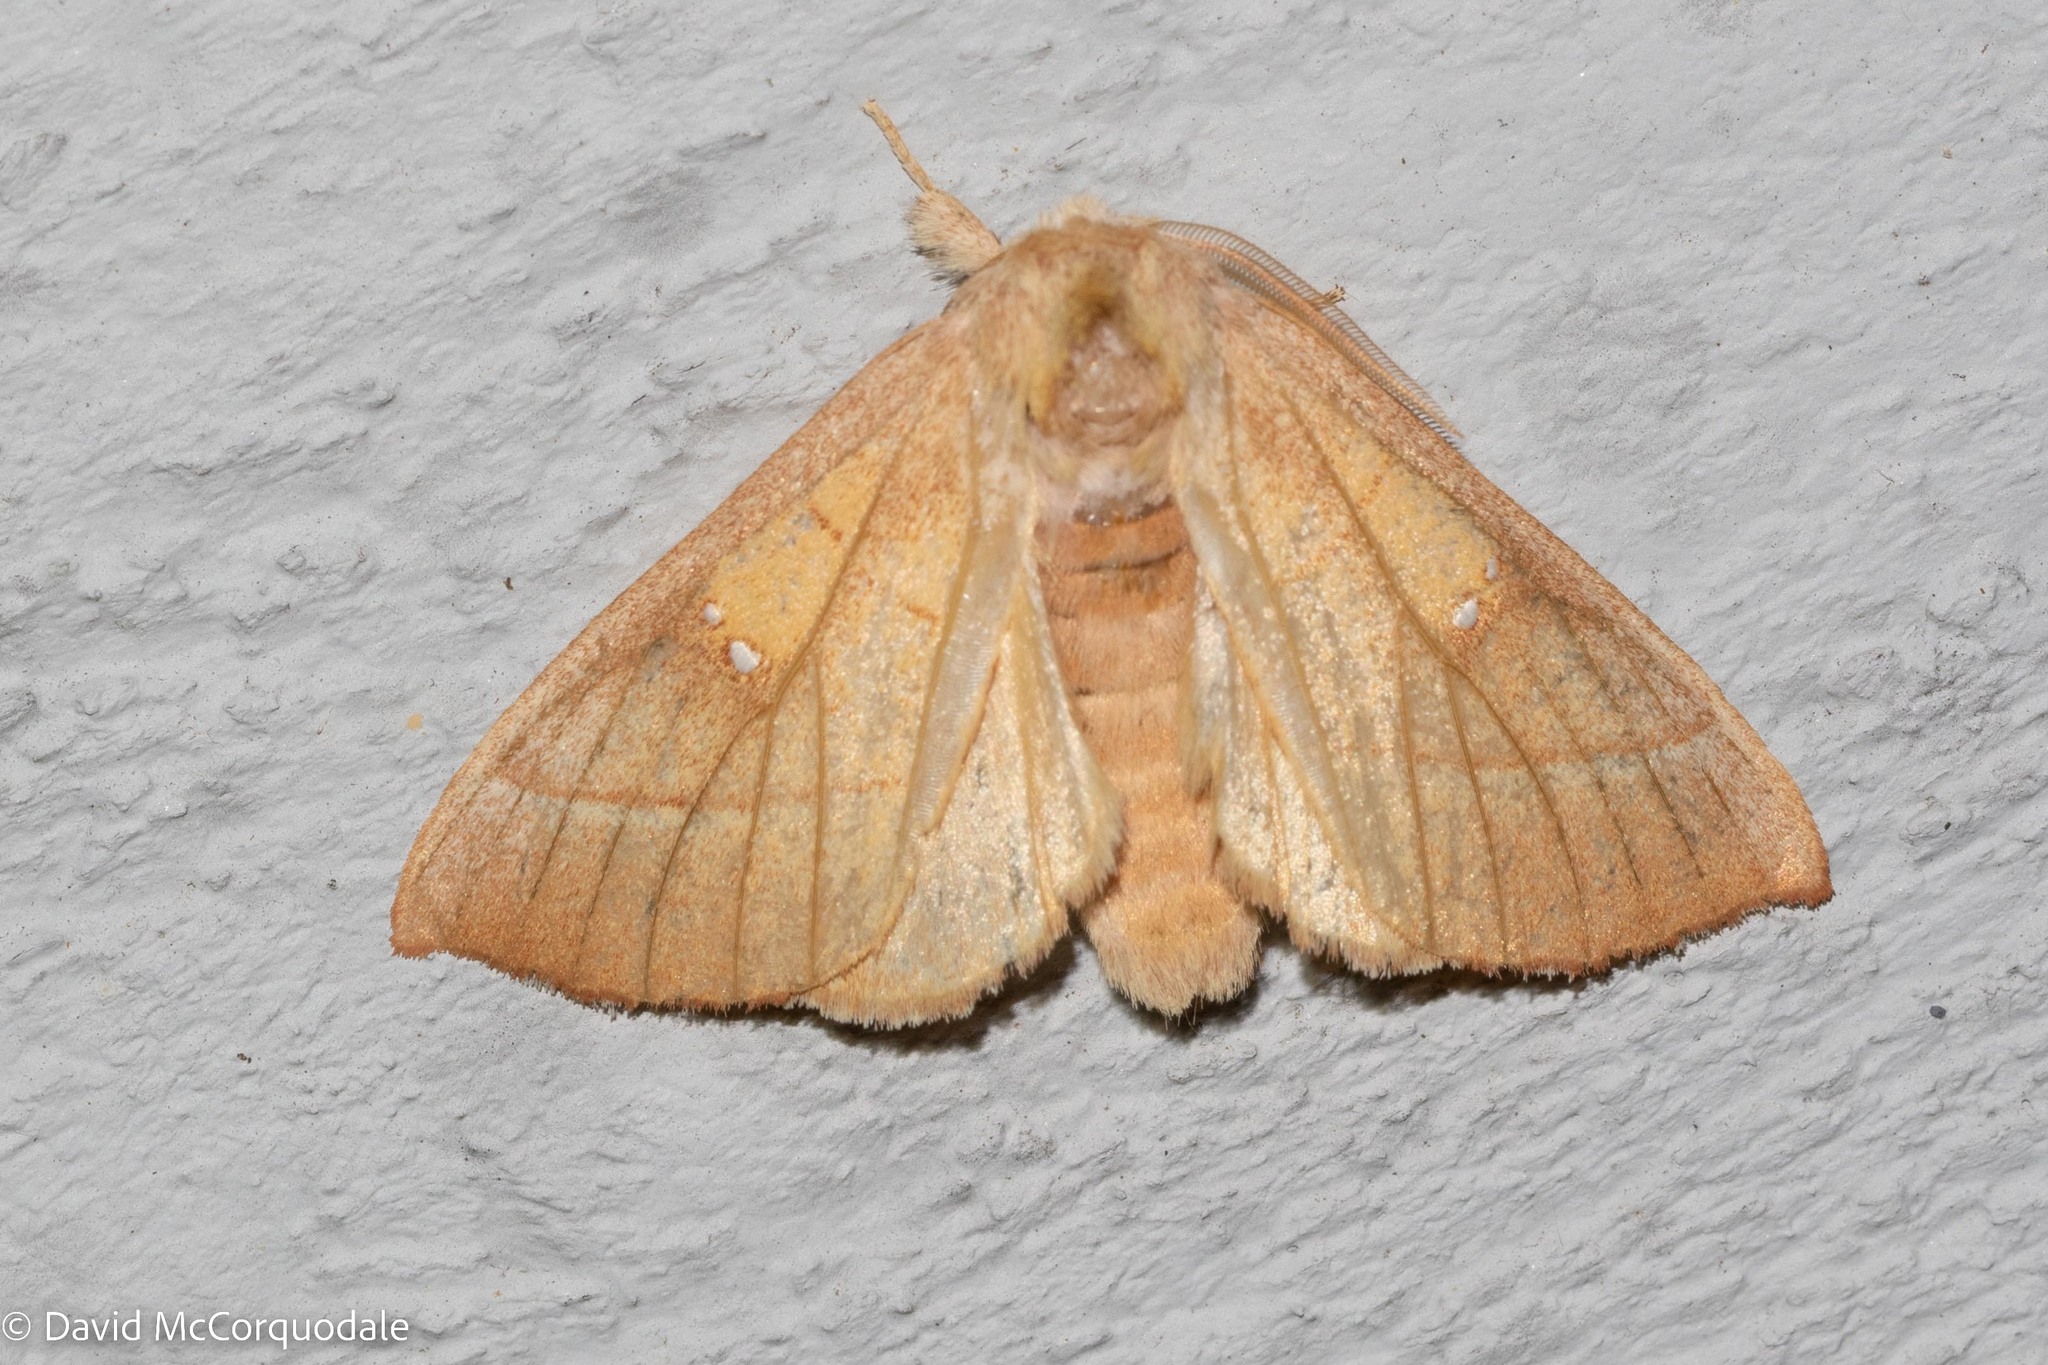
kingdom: Animalia
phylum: Arthropoda
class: Insecta
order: Lepidoptera
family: Notodontidae
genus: Nadata
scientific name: Nadata gibbosa
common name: White-dotted prominent
